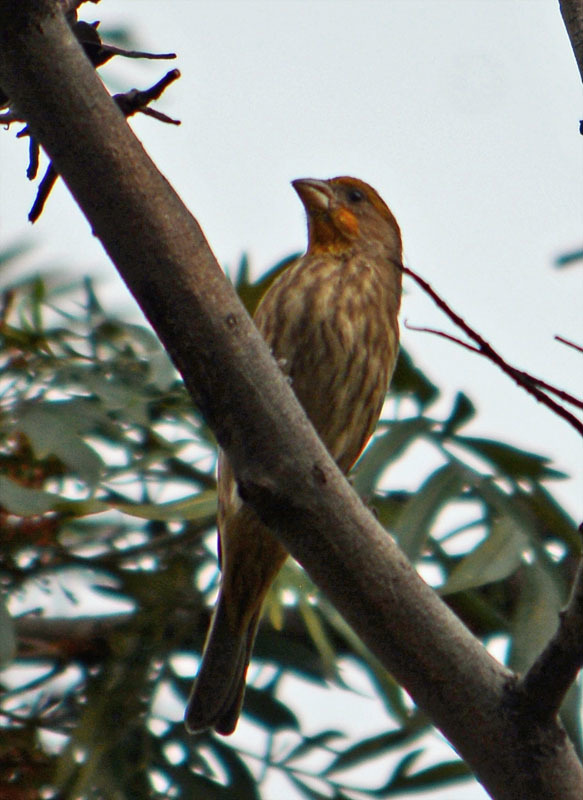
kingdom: Animalia
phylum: Chordata
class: Aves
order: Passeriformes
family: Fringillidae
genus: Haemorhous
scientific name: Haemorhous mexicanus
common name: House finch
